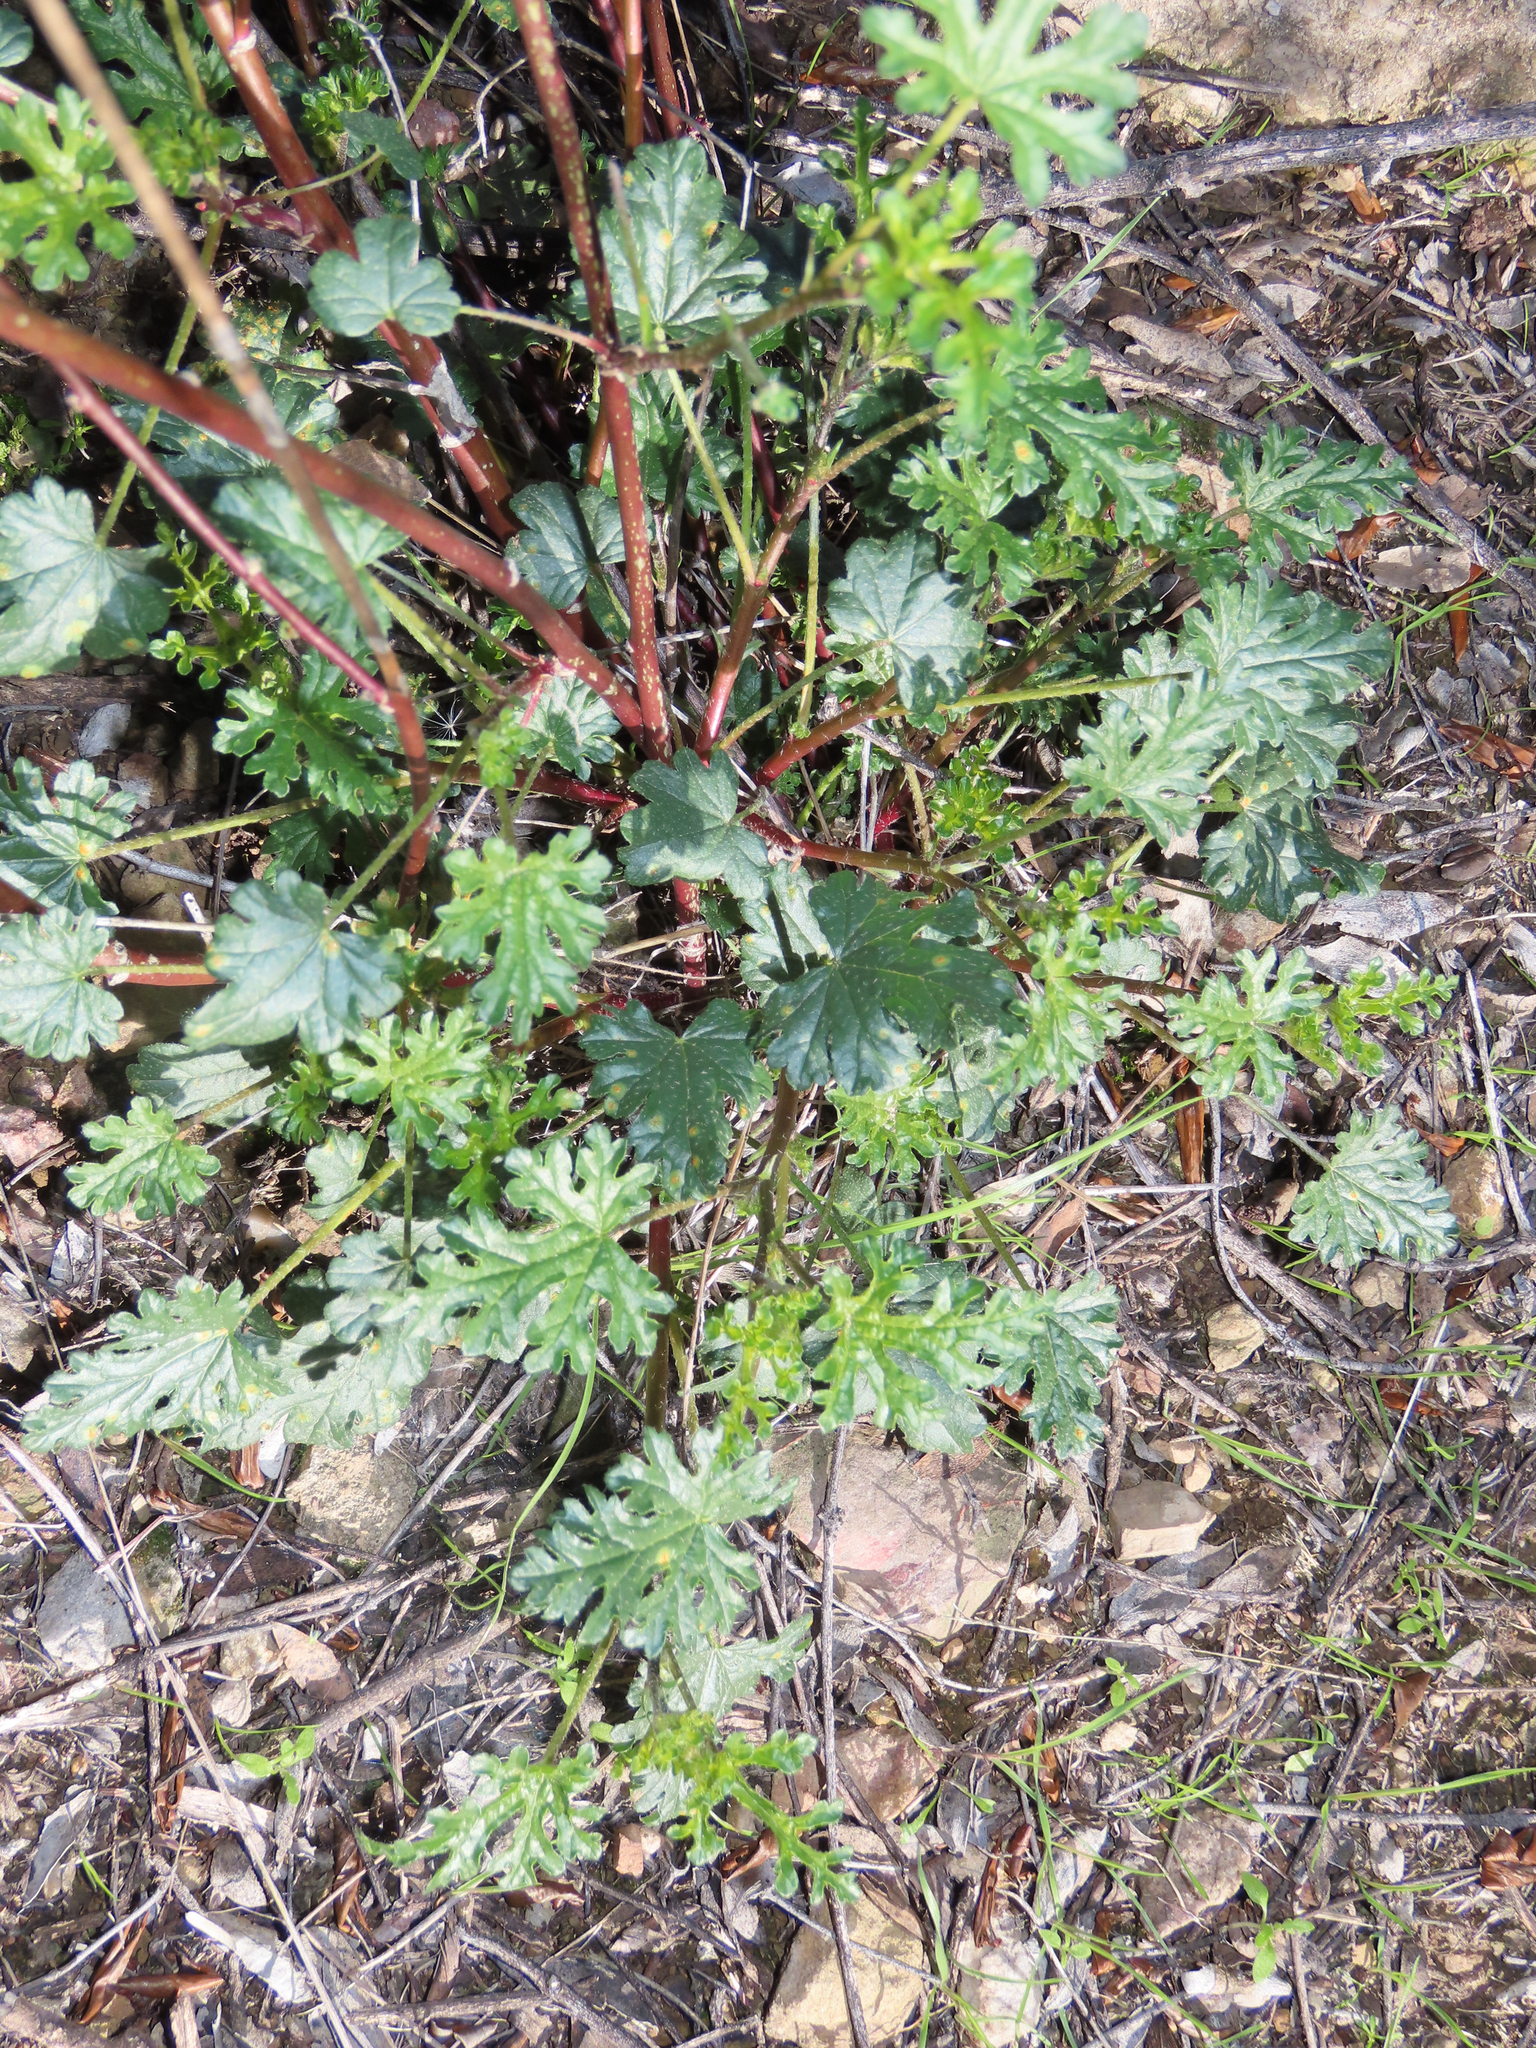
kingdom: Plantae
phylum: Tracheophyta
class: Magnoliopsida
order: Malvales
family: Malvaceae
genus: Sphaeralcea
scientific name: Sphaeralcea rusbyi
